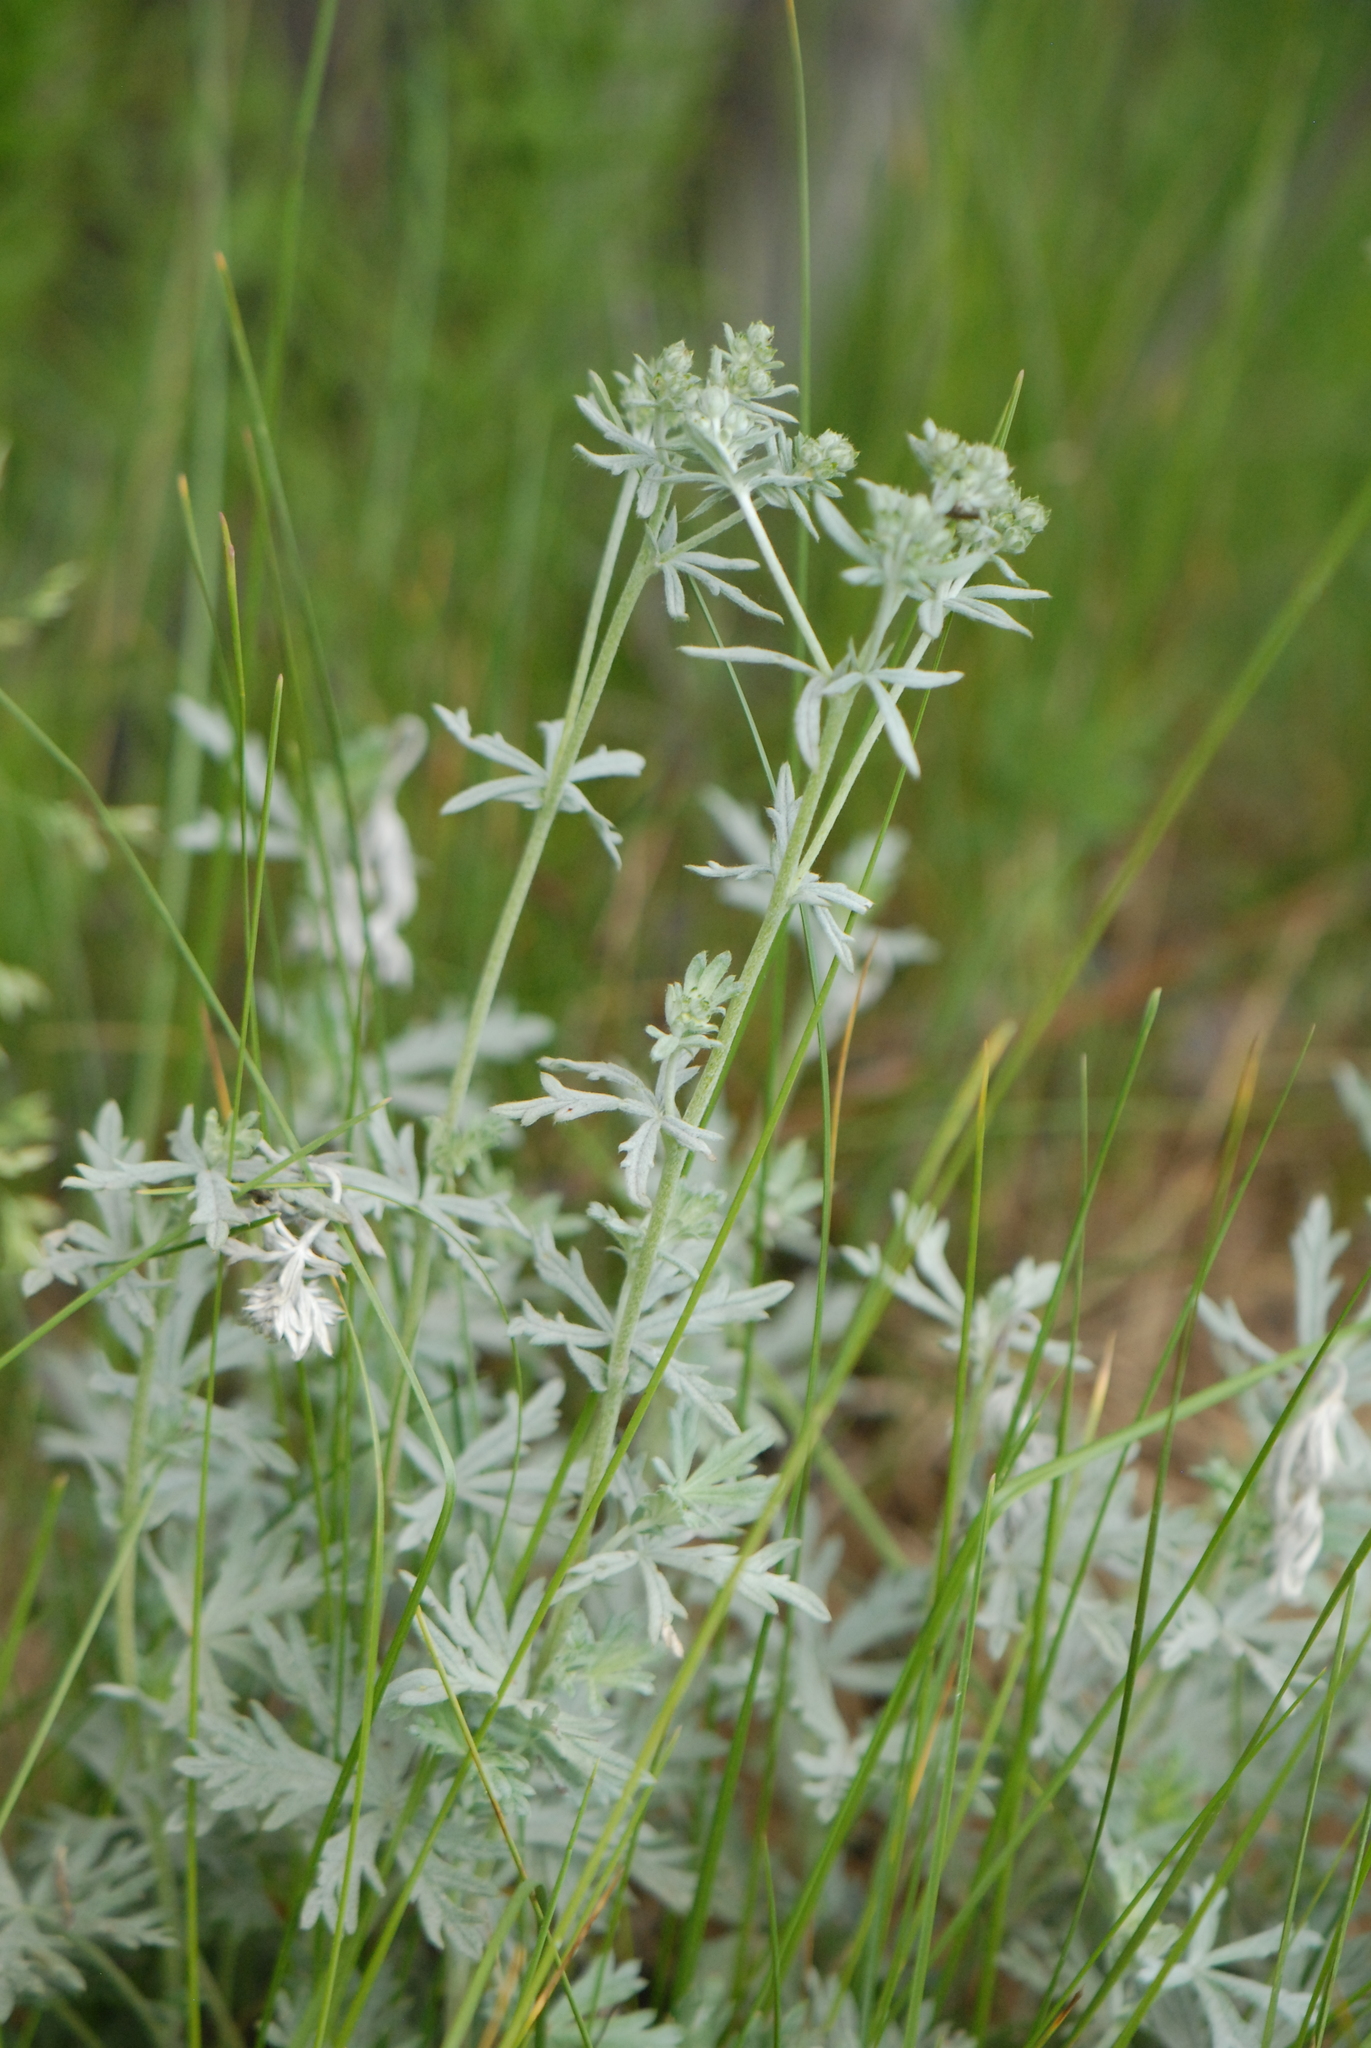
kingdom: Plantae
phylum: Tracheophyta
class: Magnoliopsida
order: Rosales
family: Rosaceae
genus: Potentilla
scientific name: Potentilla argentea
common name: Hoary cinquefoil
